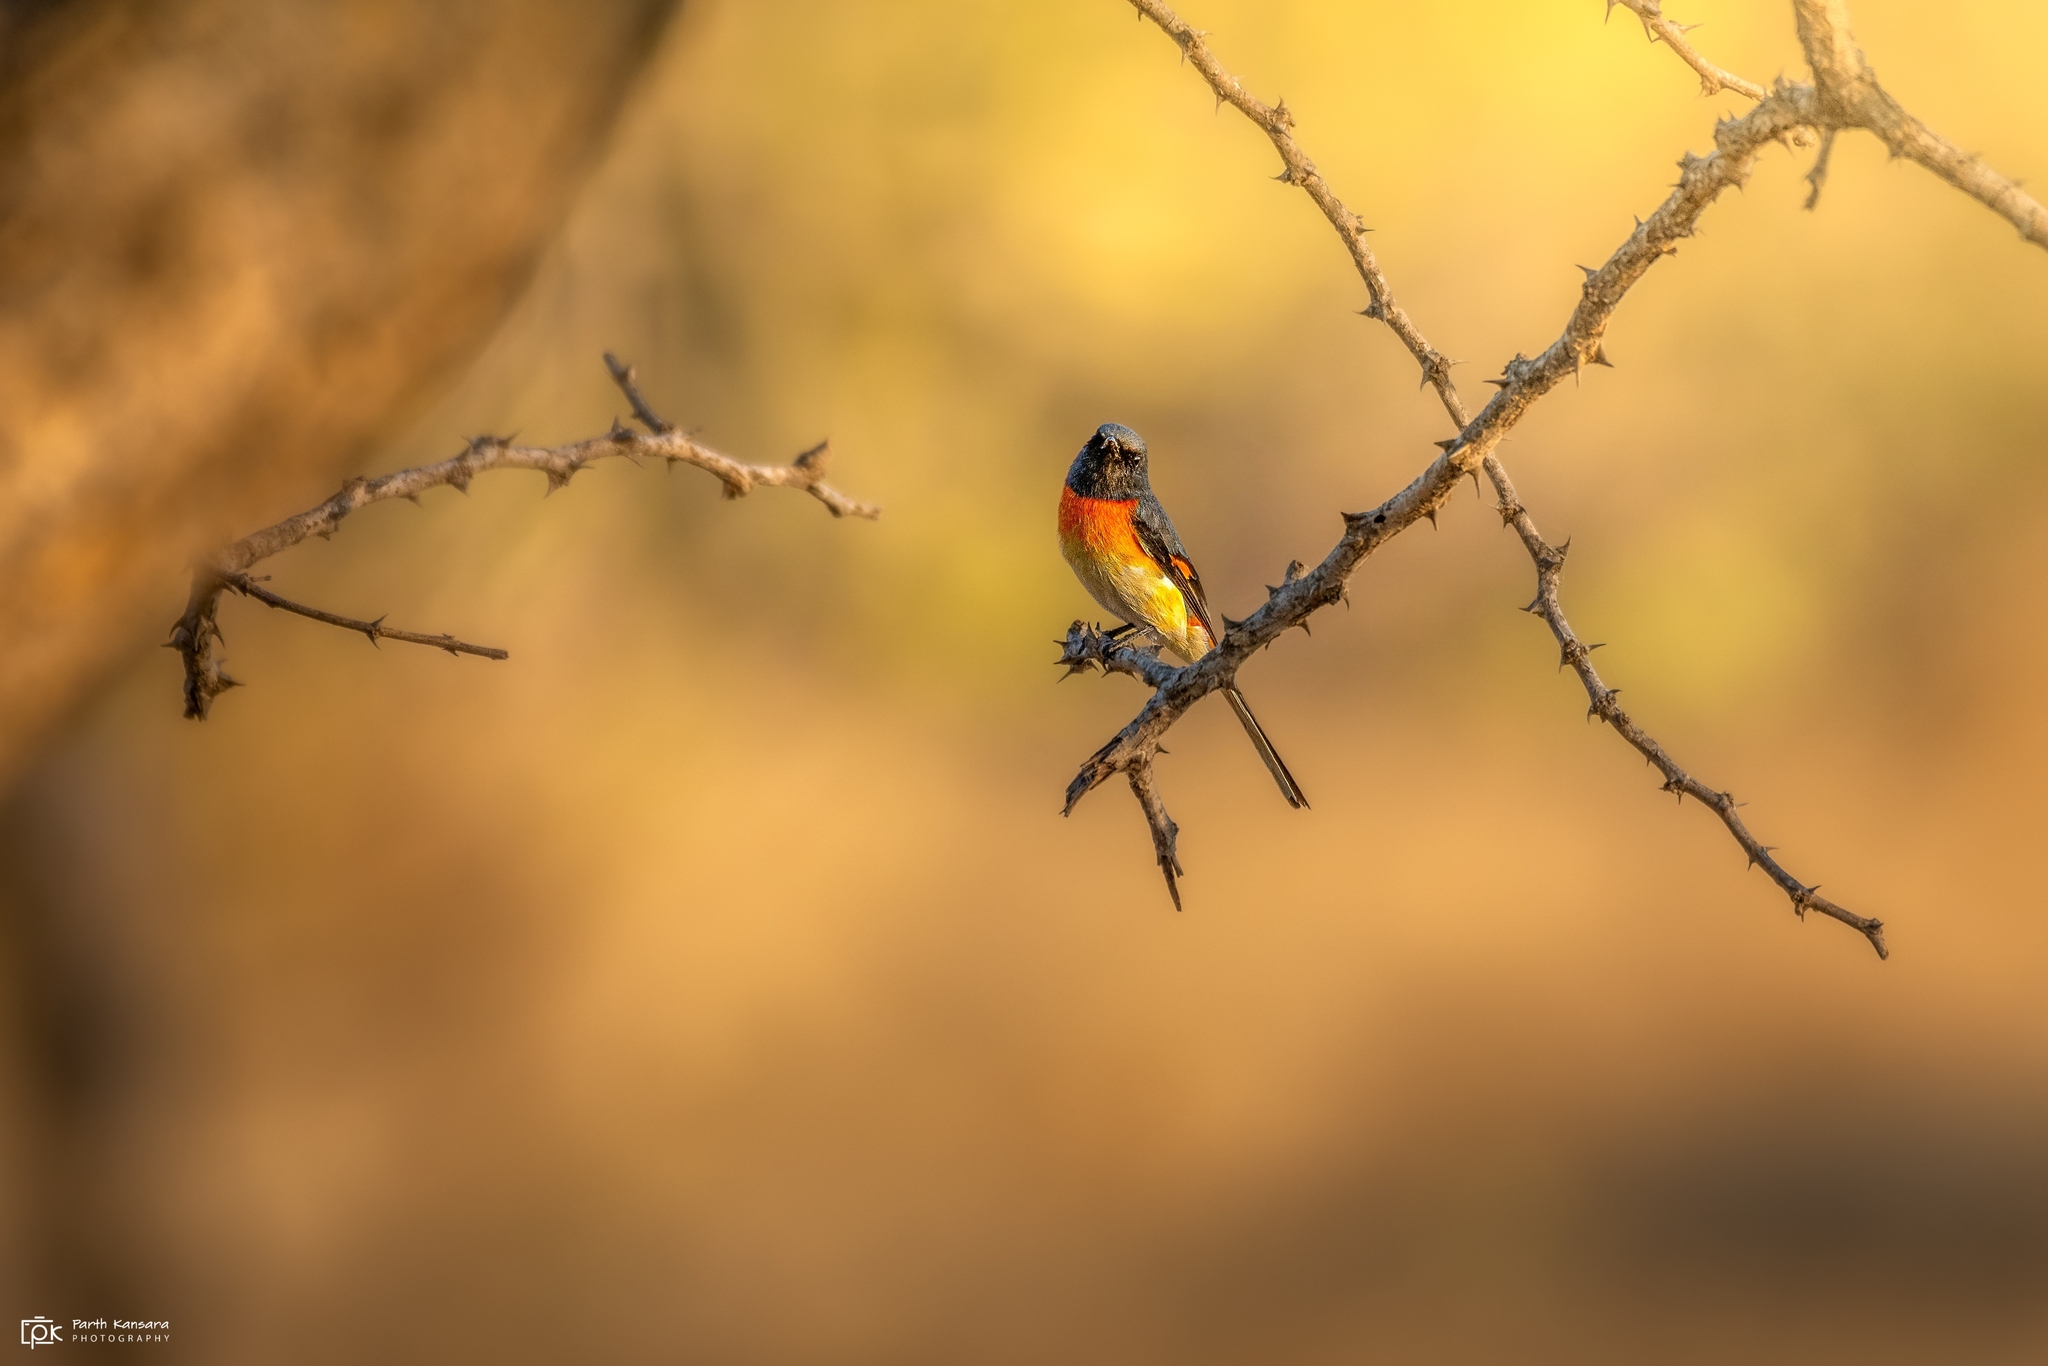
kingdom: Animalia
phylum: Chordata
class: Aves
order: Passeriformes
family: Campephagidae
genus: Pericrocotus
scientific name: Pericrocotus cinnamomeus
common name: Small minivet
